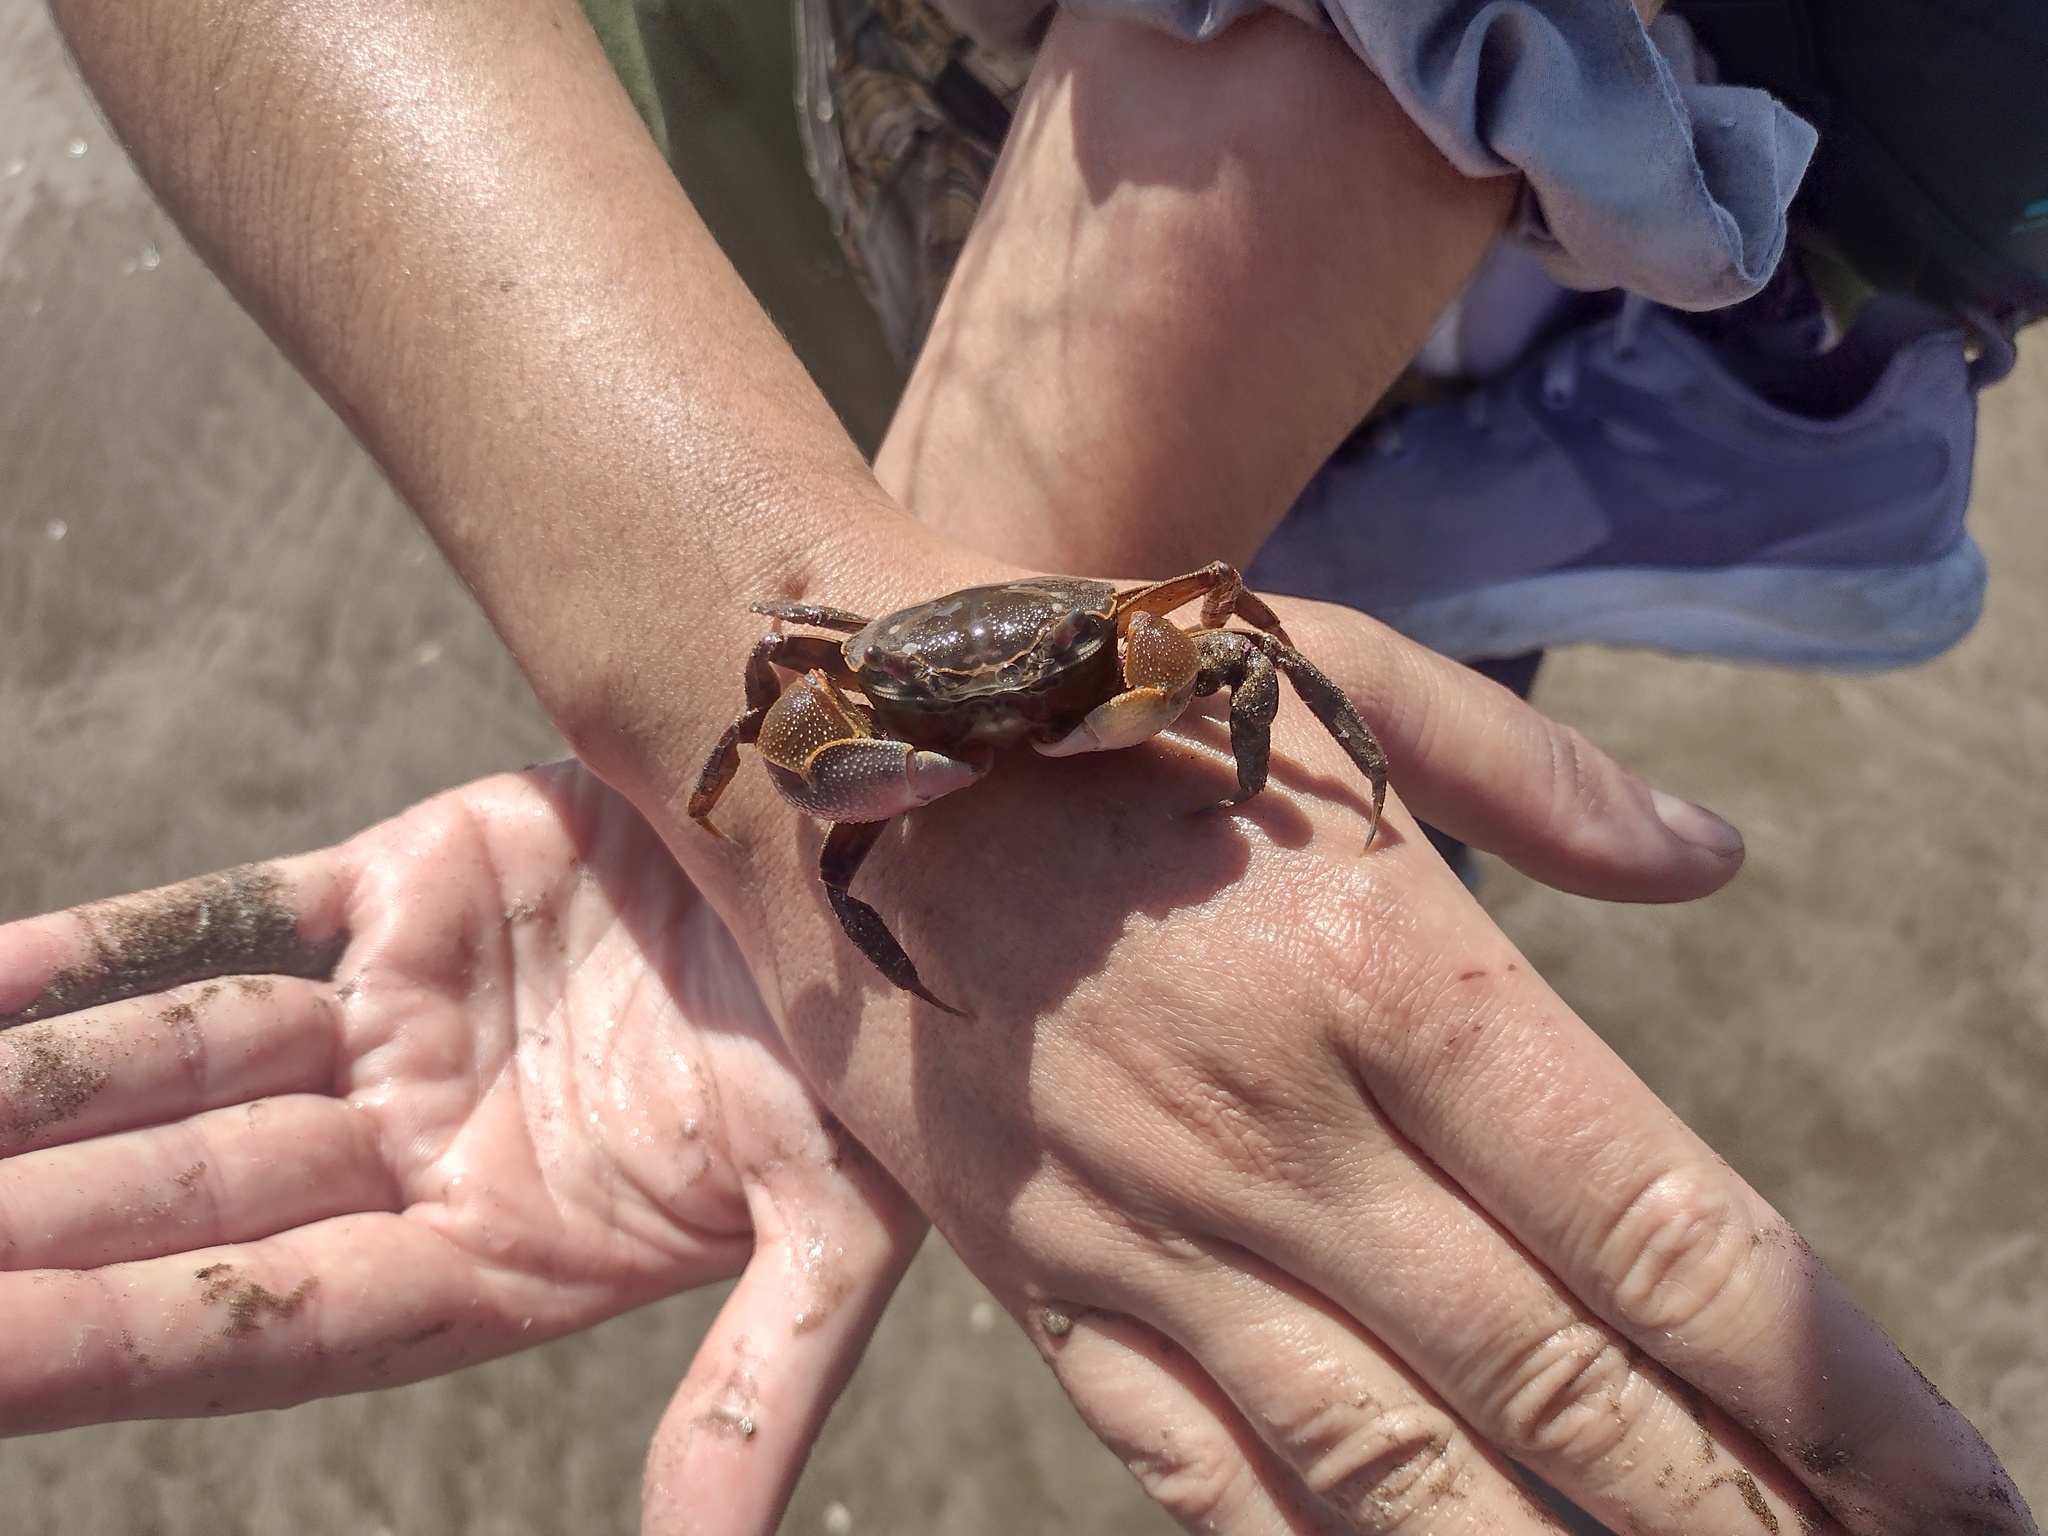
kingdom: Animalia
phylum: Arthropoda
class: Malacostraca
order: Decapoda
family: Varunidae
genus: Neohelice
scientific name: Neohelice granulata
